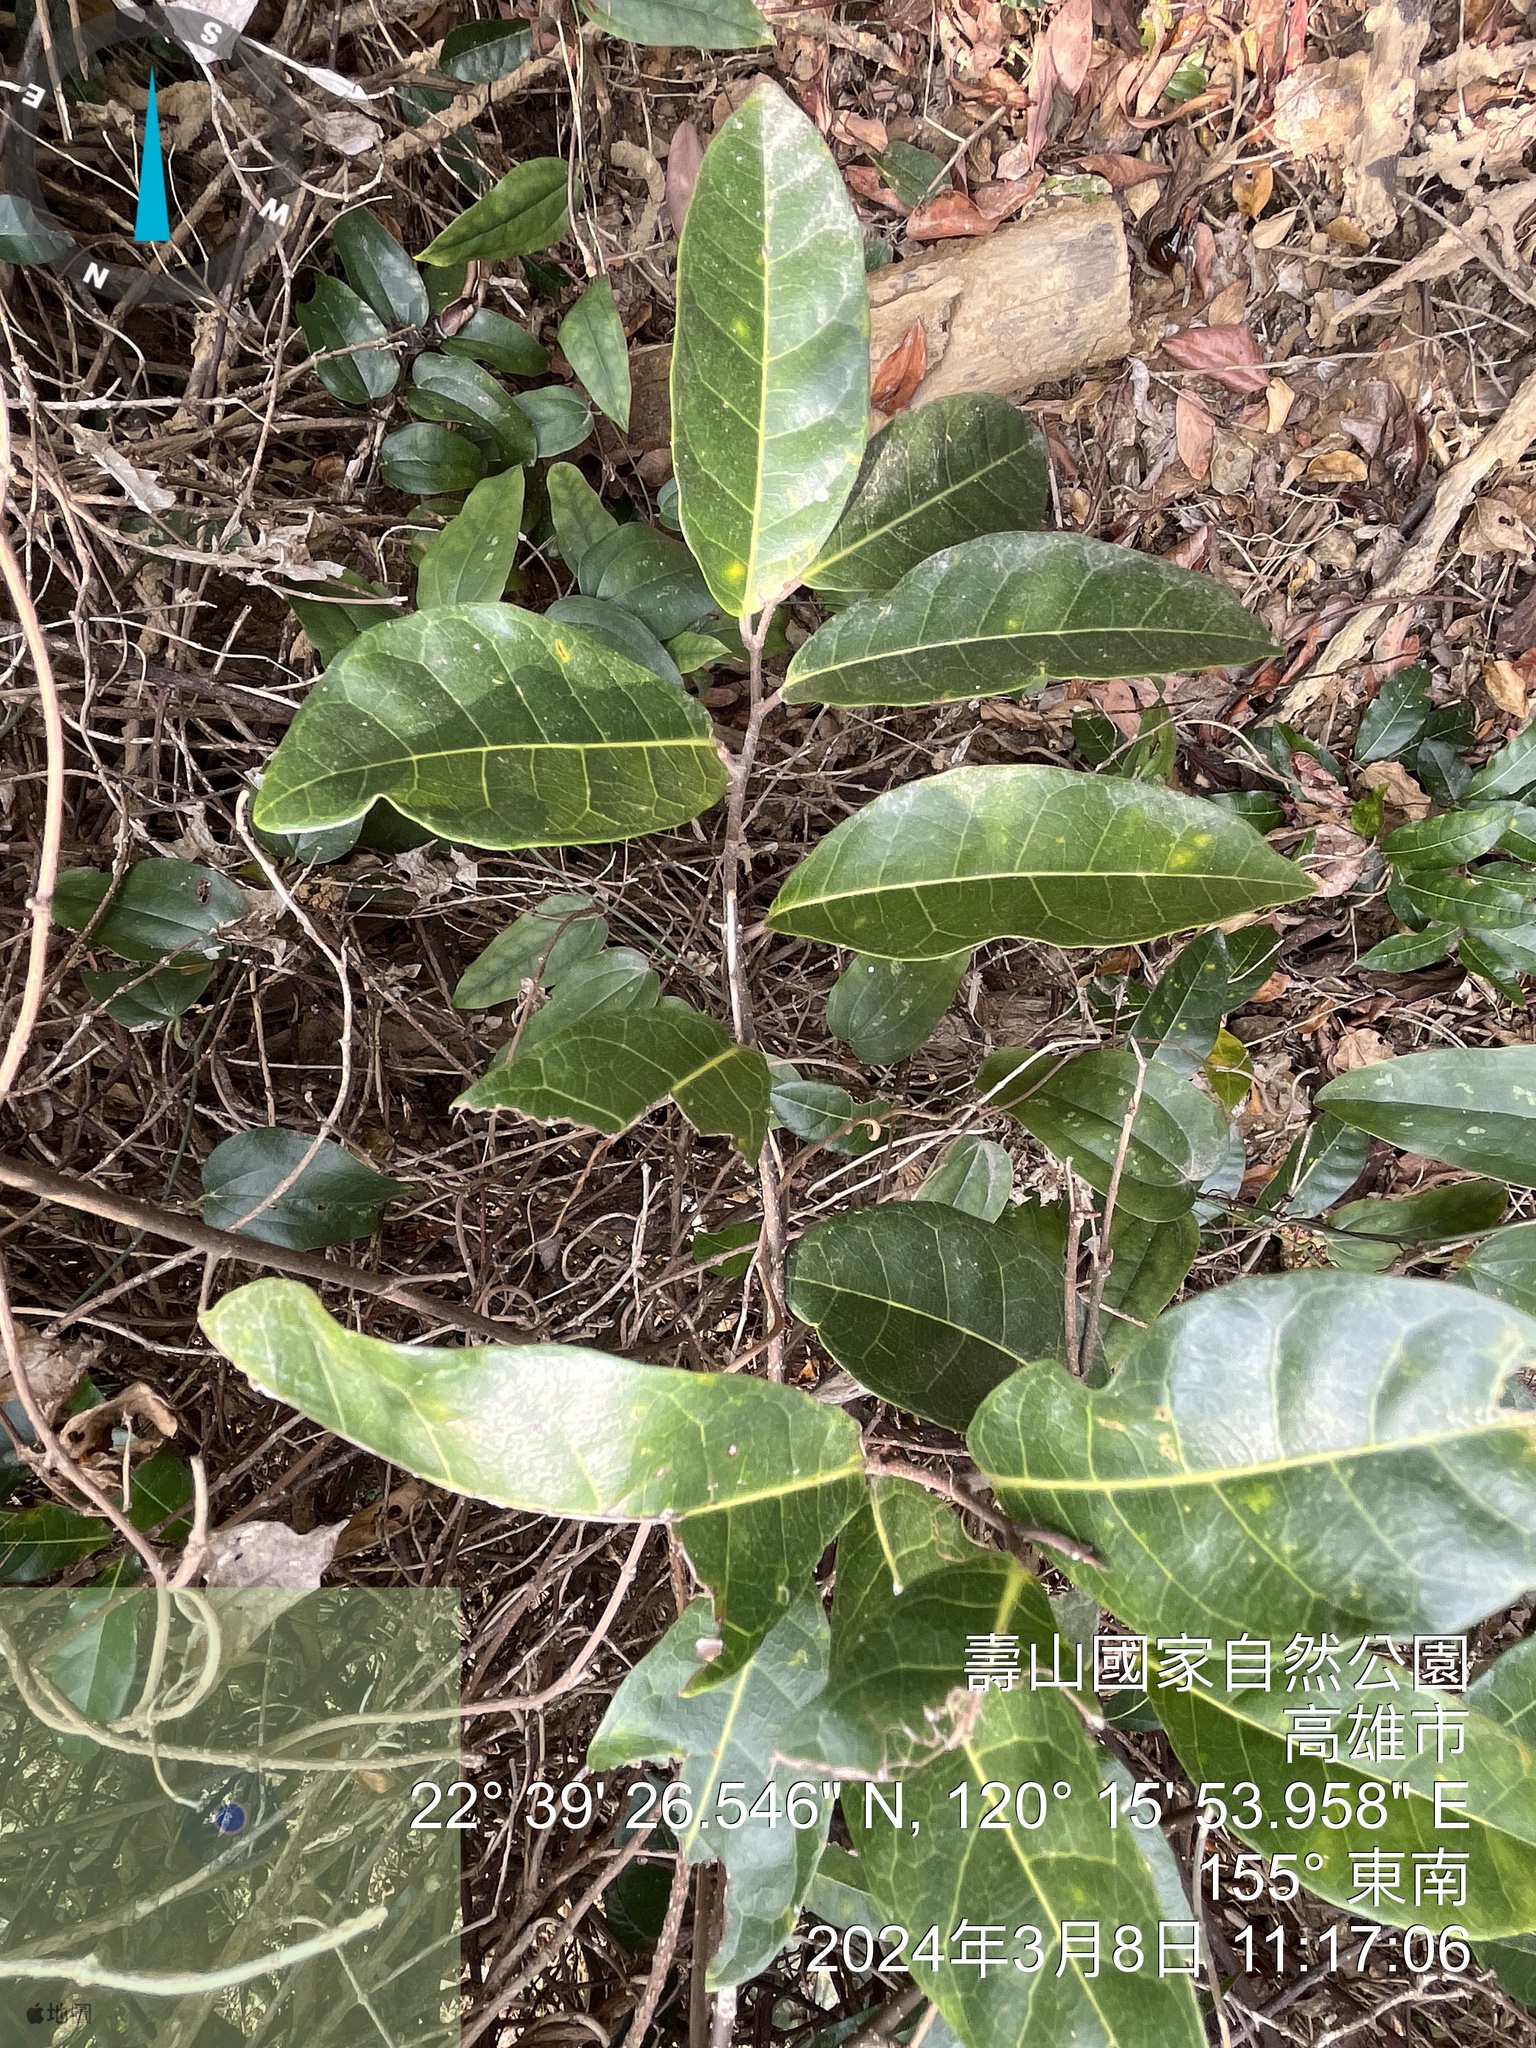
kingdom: Plantae
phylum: Tracheophyta
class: Magnoliopsida
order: Rosales
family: Moraceae
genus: Malaisia
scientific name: Malaisia scandens
